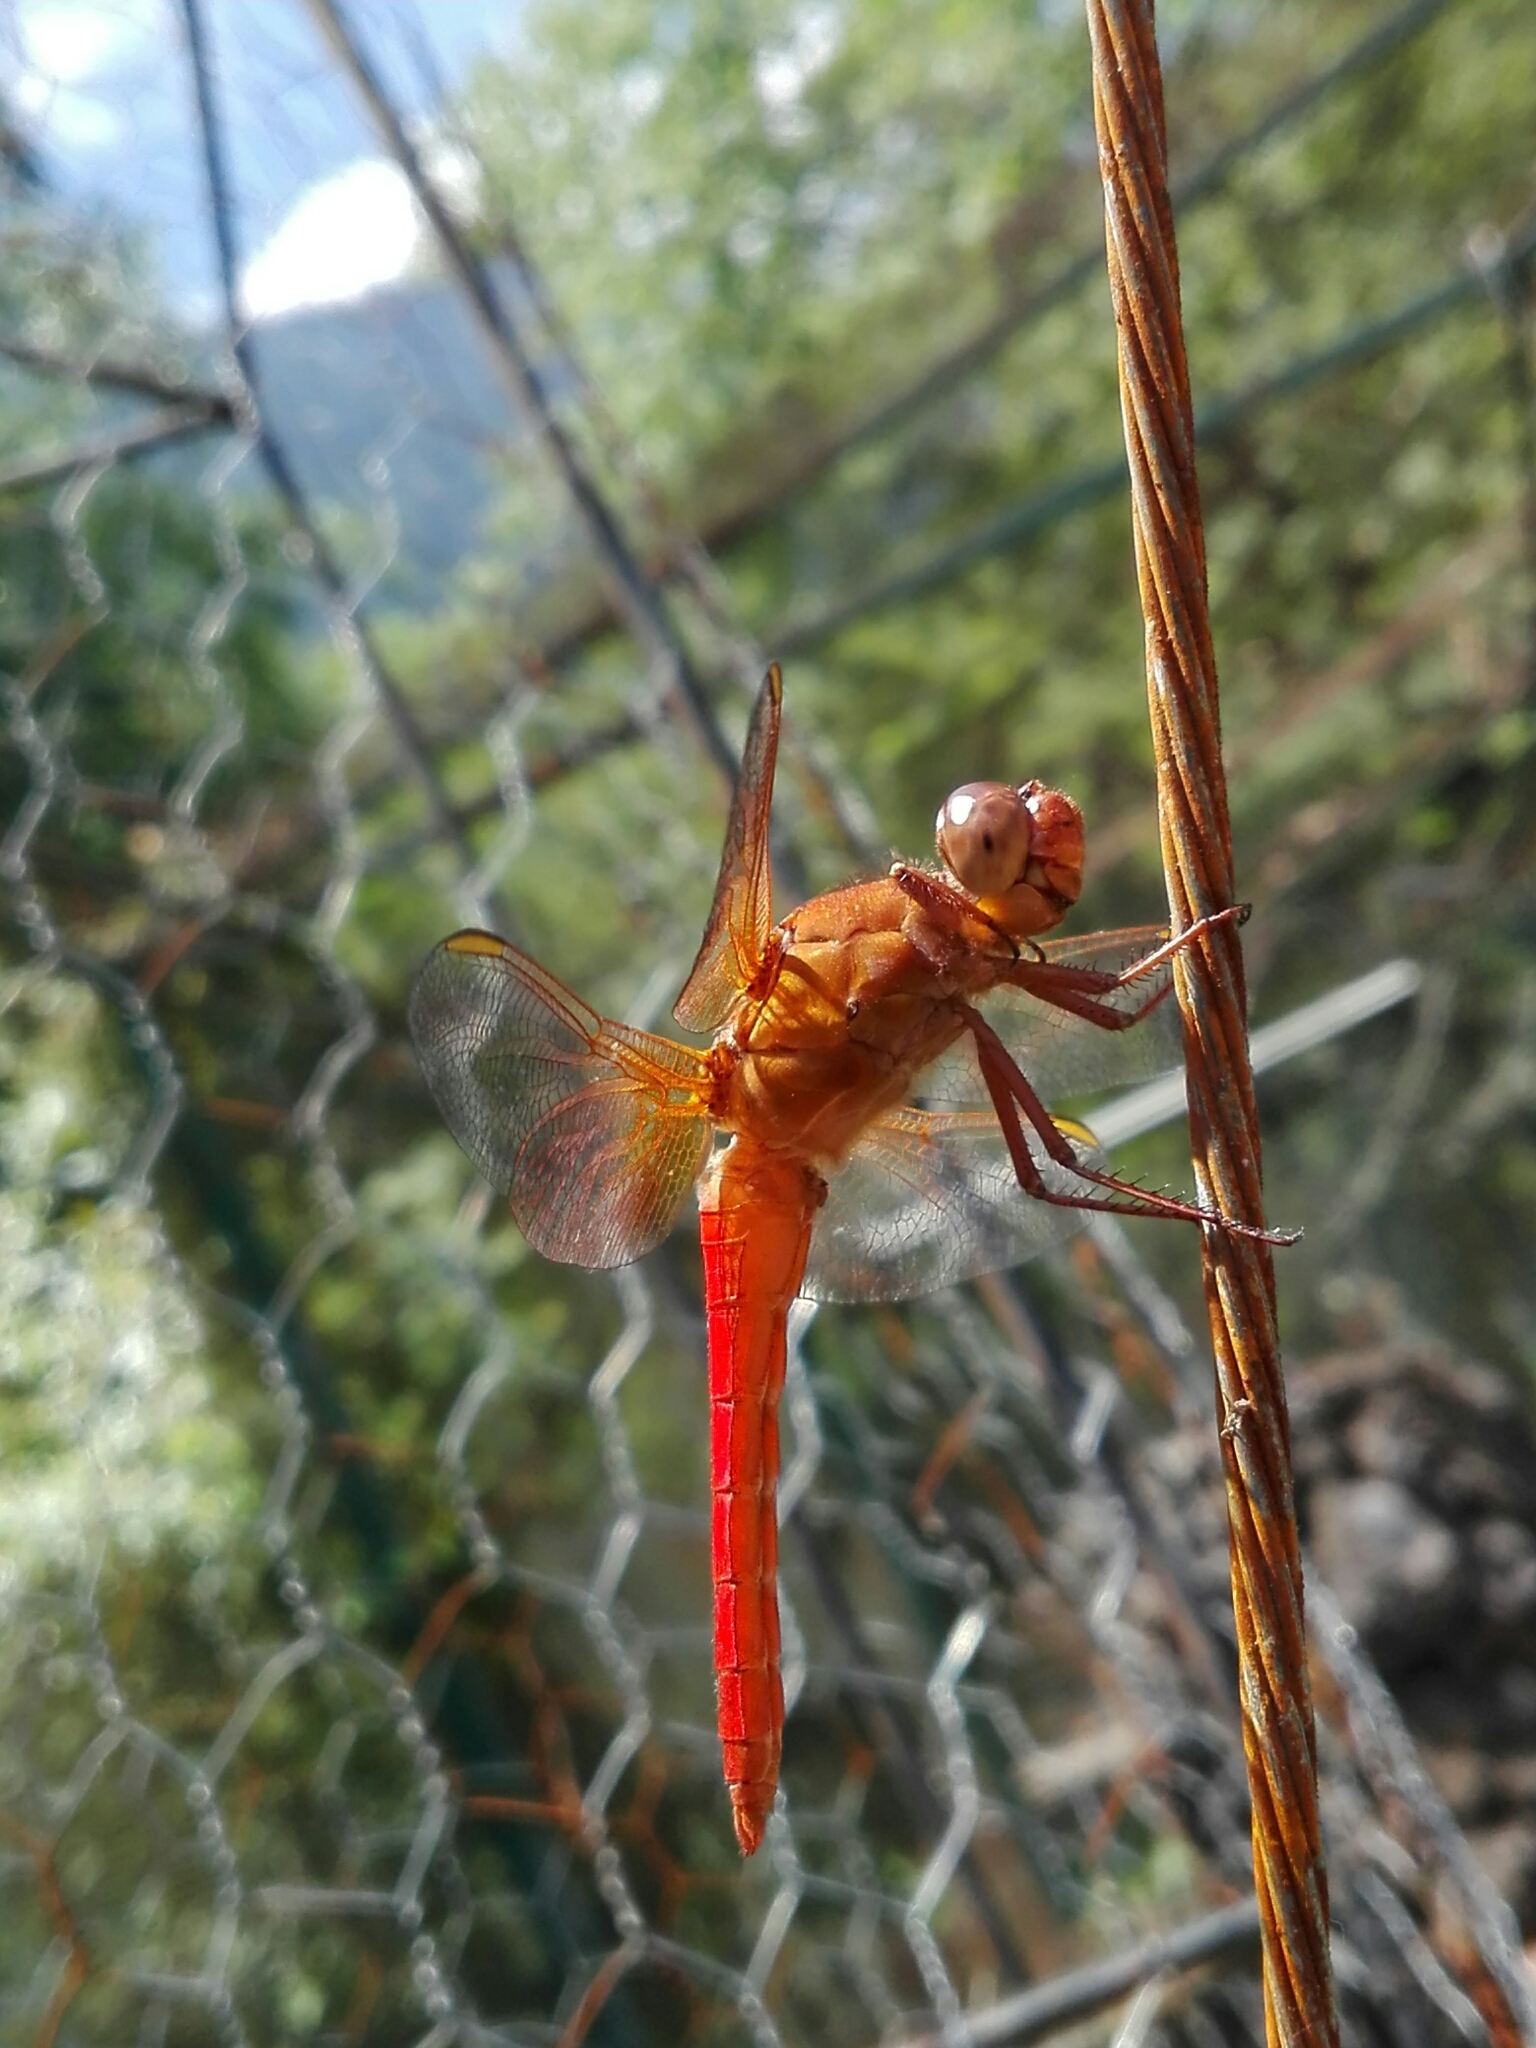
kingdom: Animalia
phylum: Arthropoda
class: Insecta
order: Odonata
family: Libellulidae
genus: Libellula
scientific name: Libellula croceipennis
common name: Neon skimmer
